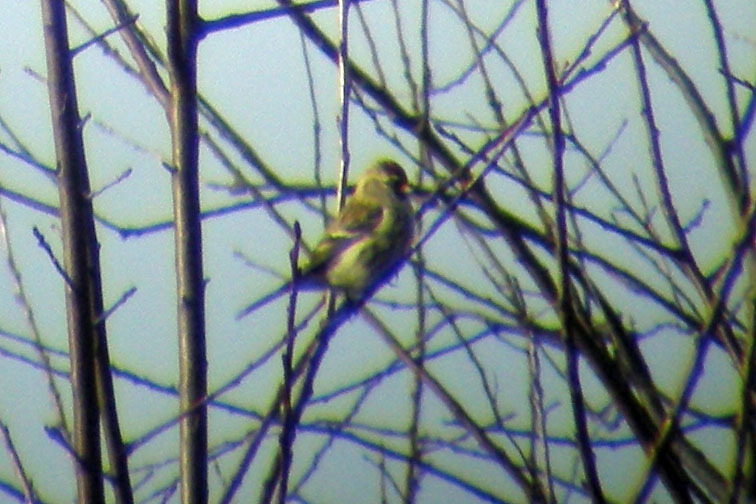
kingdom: Animalia
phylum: Chordata
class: Aves
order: Passeriformes
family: Fringillidae
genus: Acanthis
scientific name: Acanthis flammea
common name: Common redpoll
